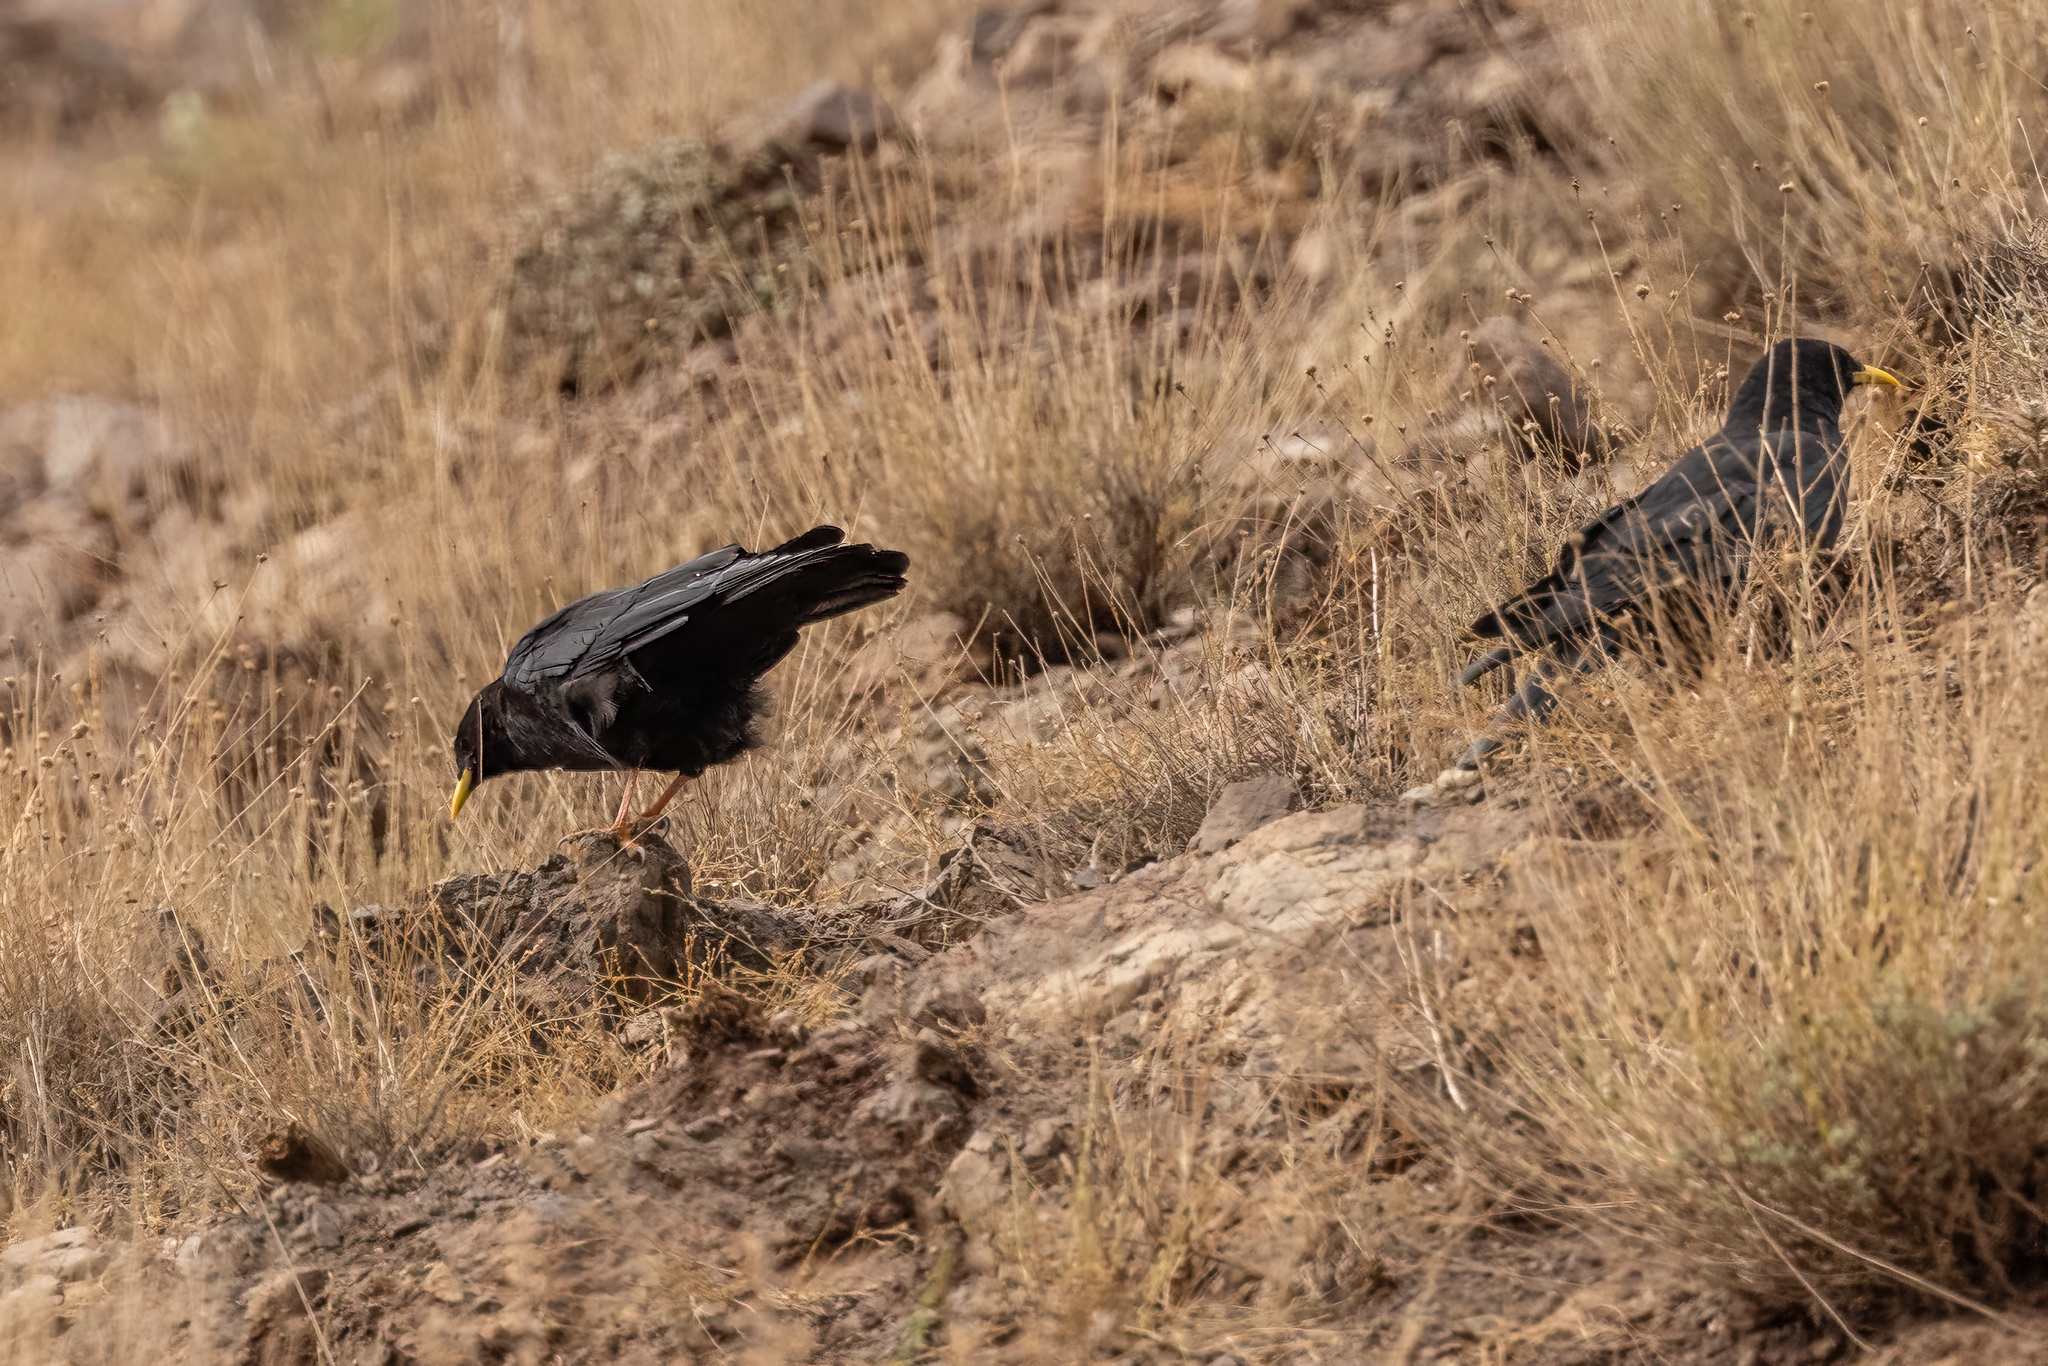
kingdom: Animalia
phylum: Chordata
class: Aves
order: Passeriformes
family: Corvidae
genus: Pyrrhocorax
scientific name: Pyrrhocorax graculus
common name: Alpine chough
